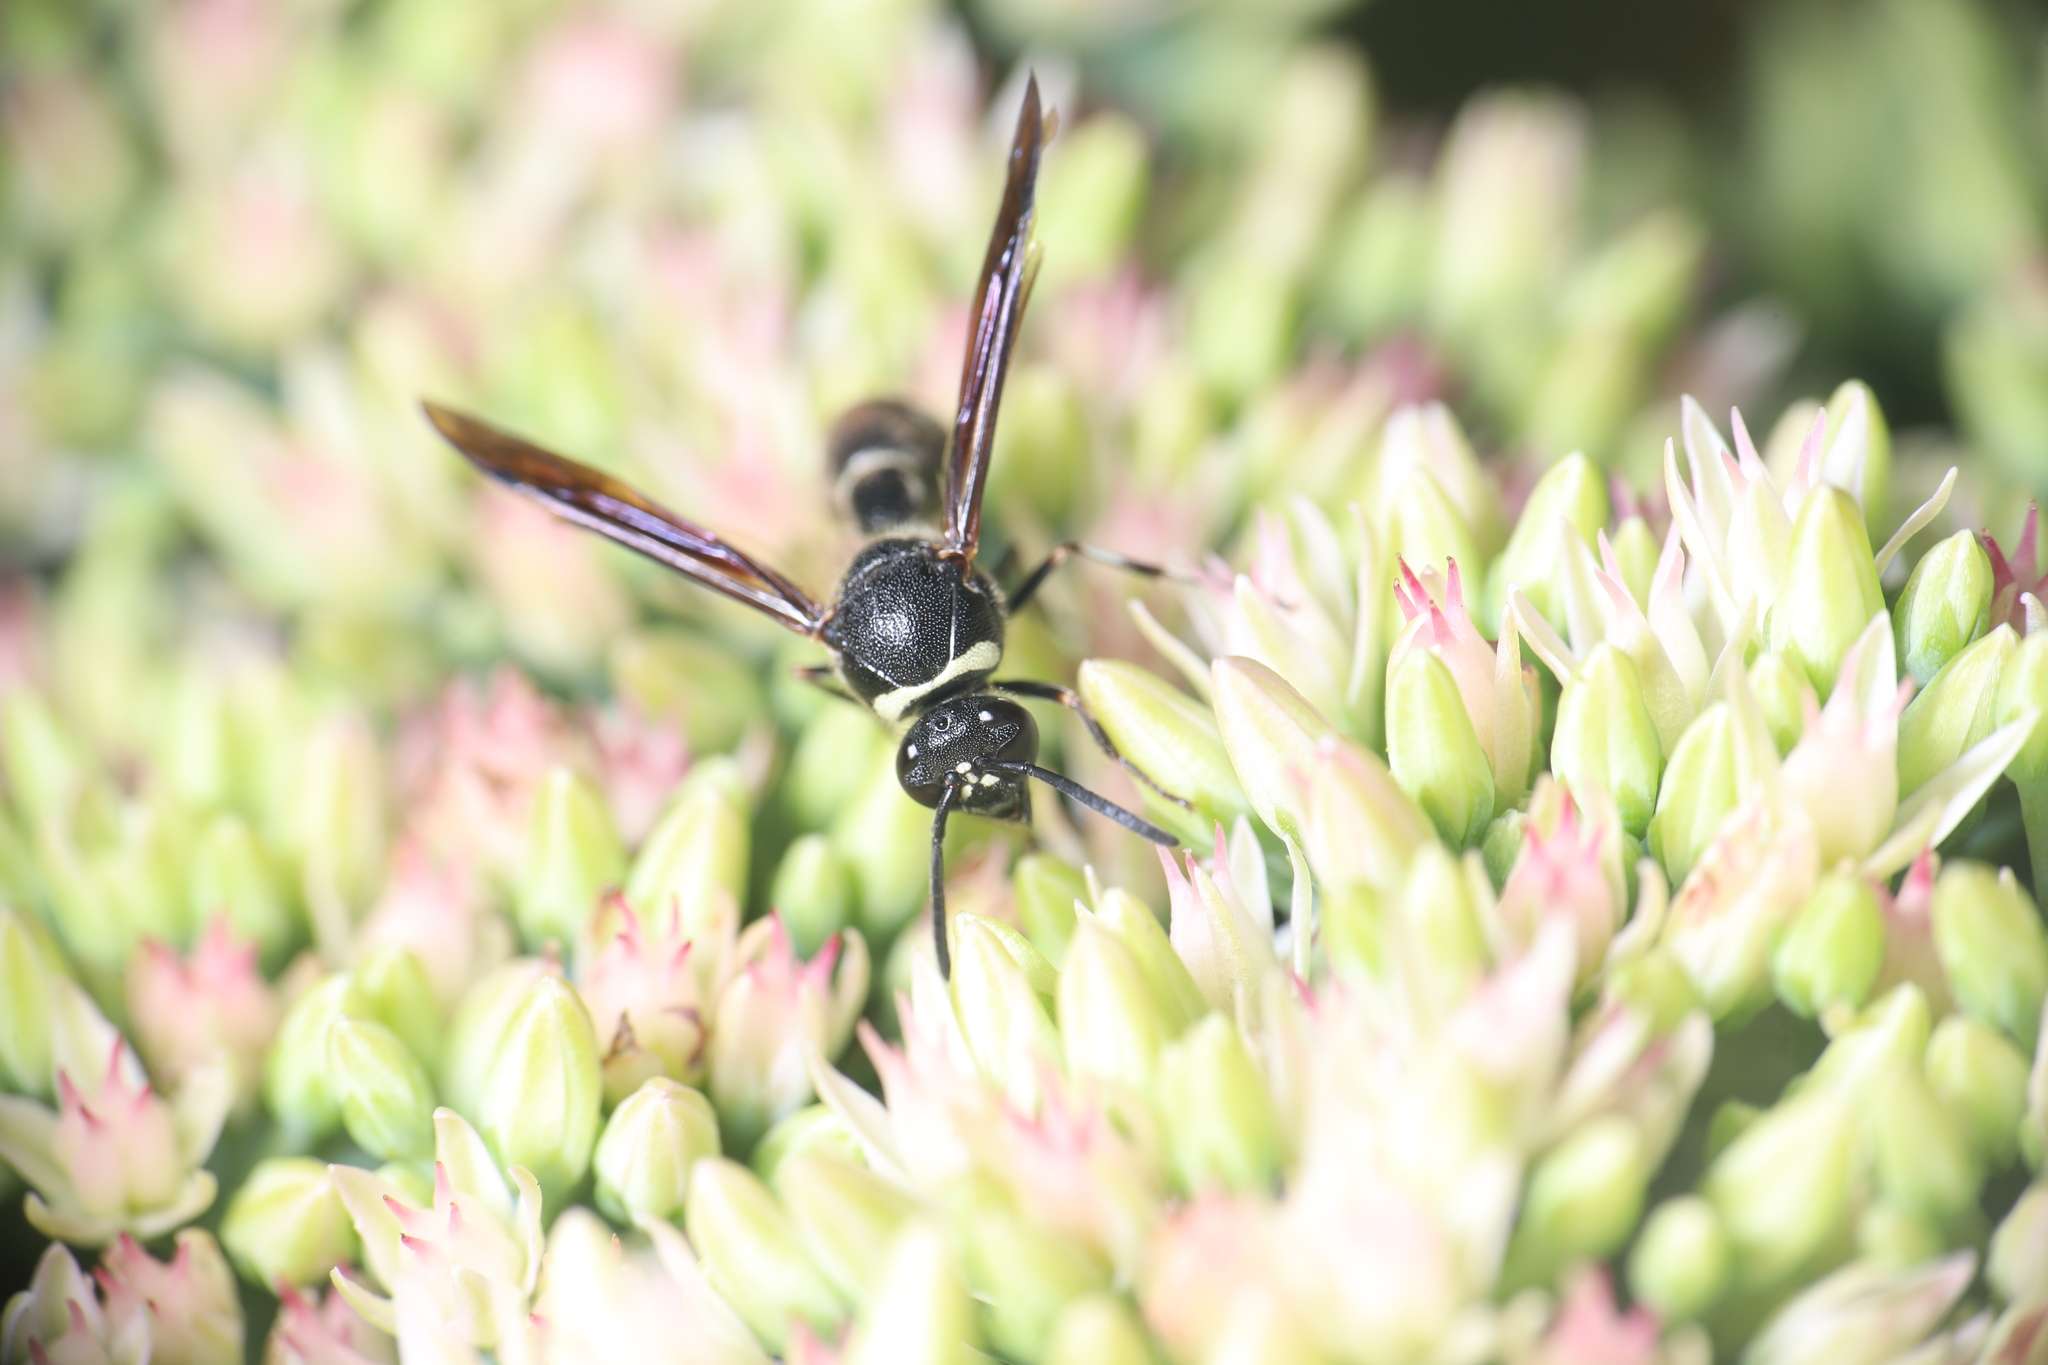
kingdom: Animalia
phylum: Arthropoda
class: Insecta
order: Hymenoptera
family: Vespidae
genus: Eumenes
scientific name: Eumenes fraternus
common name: Fraternal potter wasp
